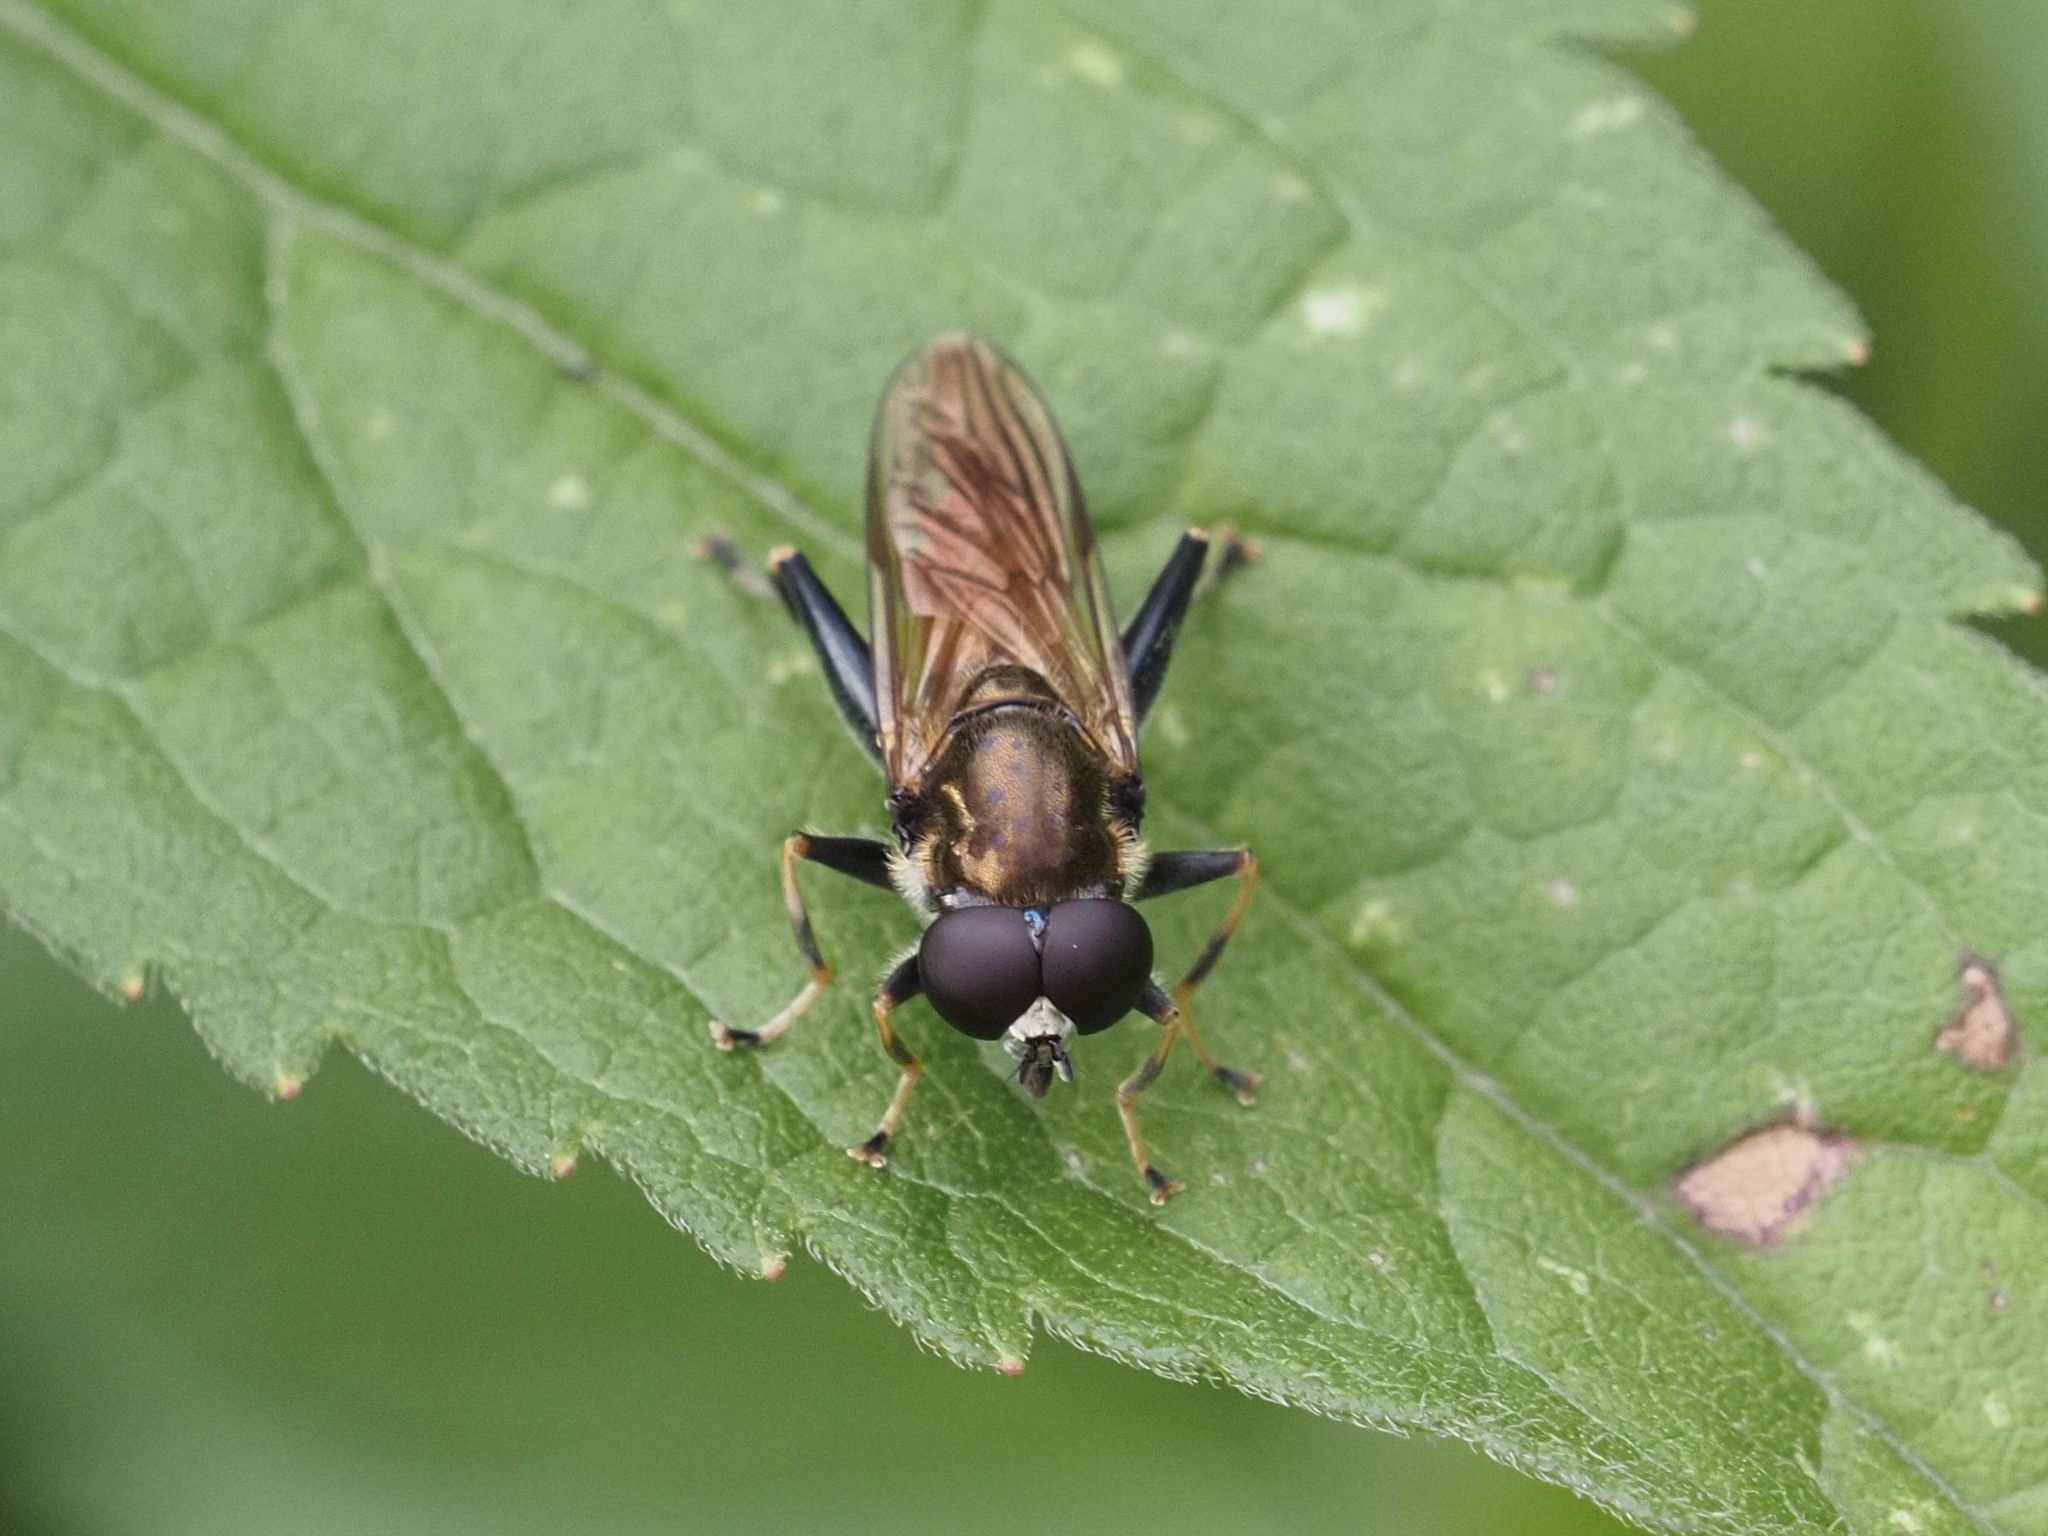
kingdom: Animalia
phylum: Arthropoda
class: Insecta
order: Diptera
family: Syrphidae
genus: Xylota
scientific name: Xylota segnis
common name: Brown-toed forest fly
